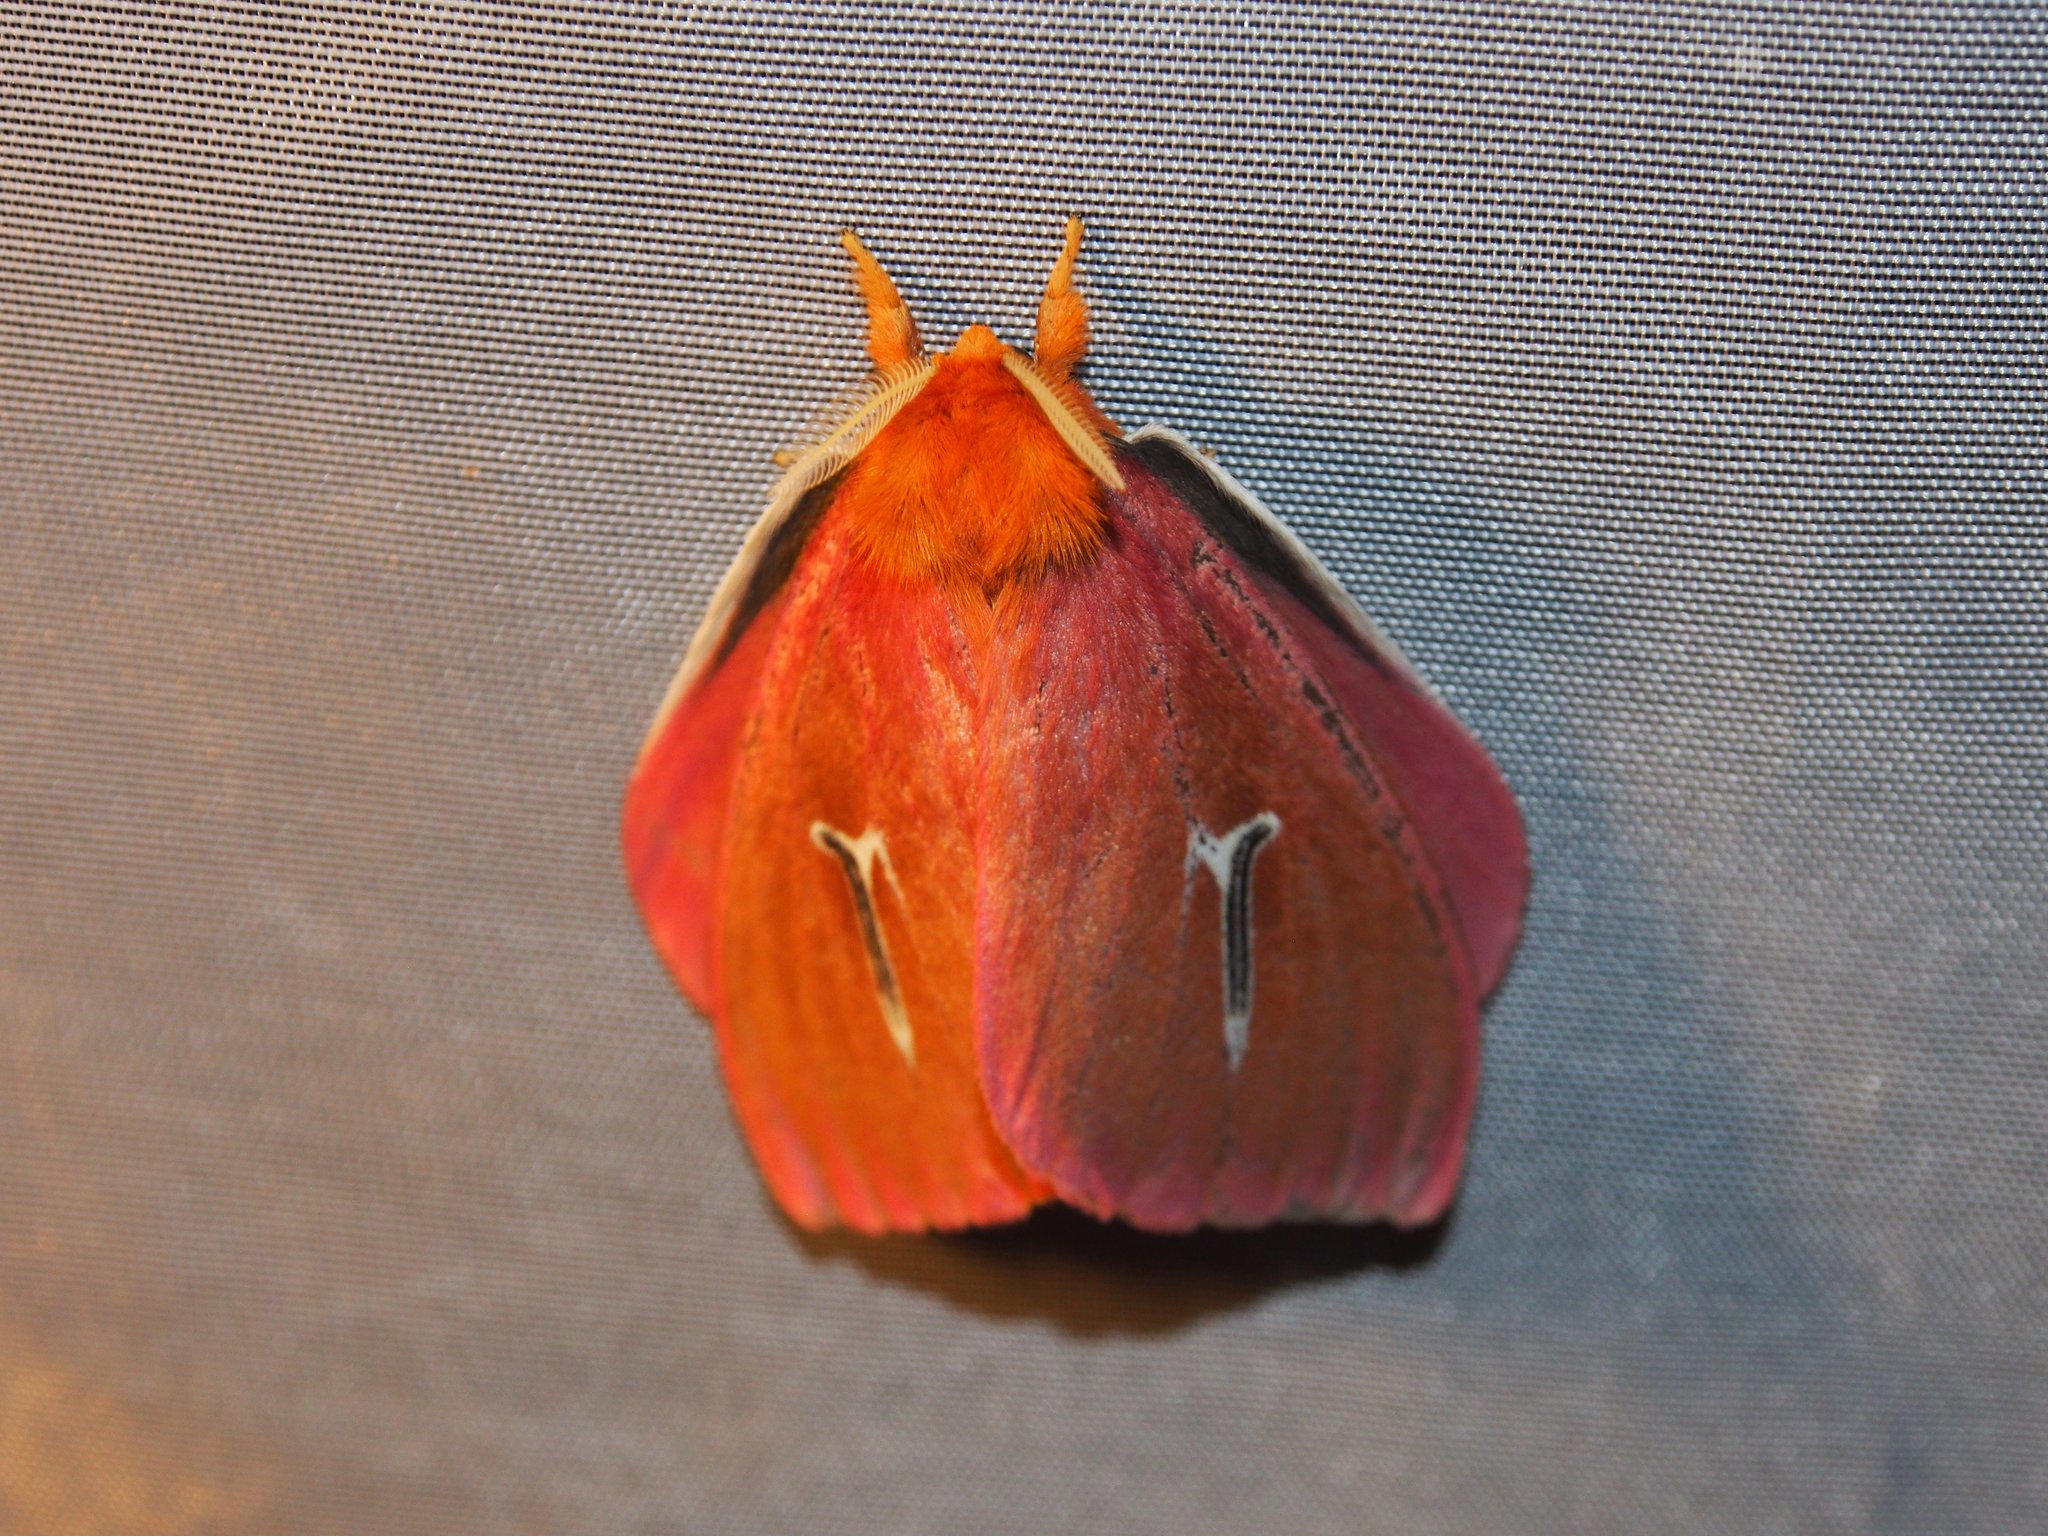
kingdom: Animalia
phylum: Arthropoda
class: Insecta
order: Lepidoptera
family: Saturniidae
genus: Cerodirphia
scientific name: Cerodirphia avenata
